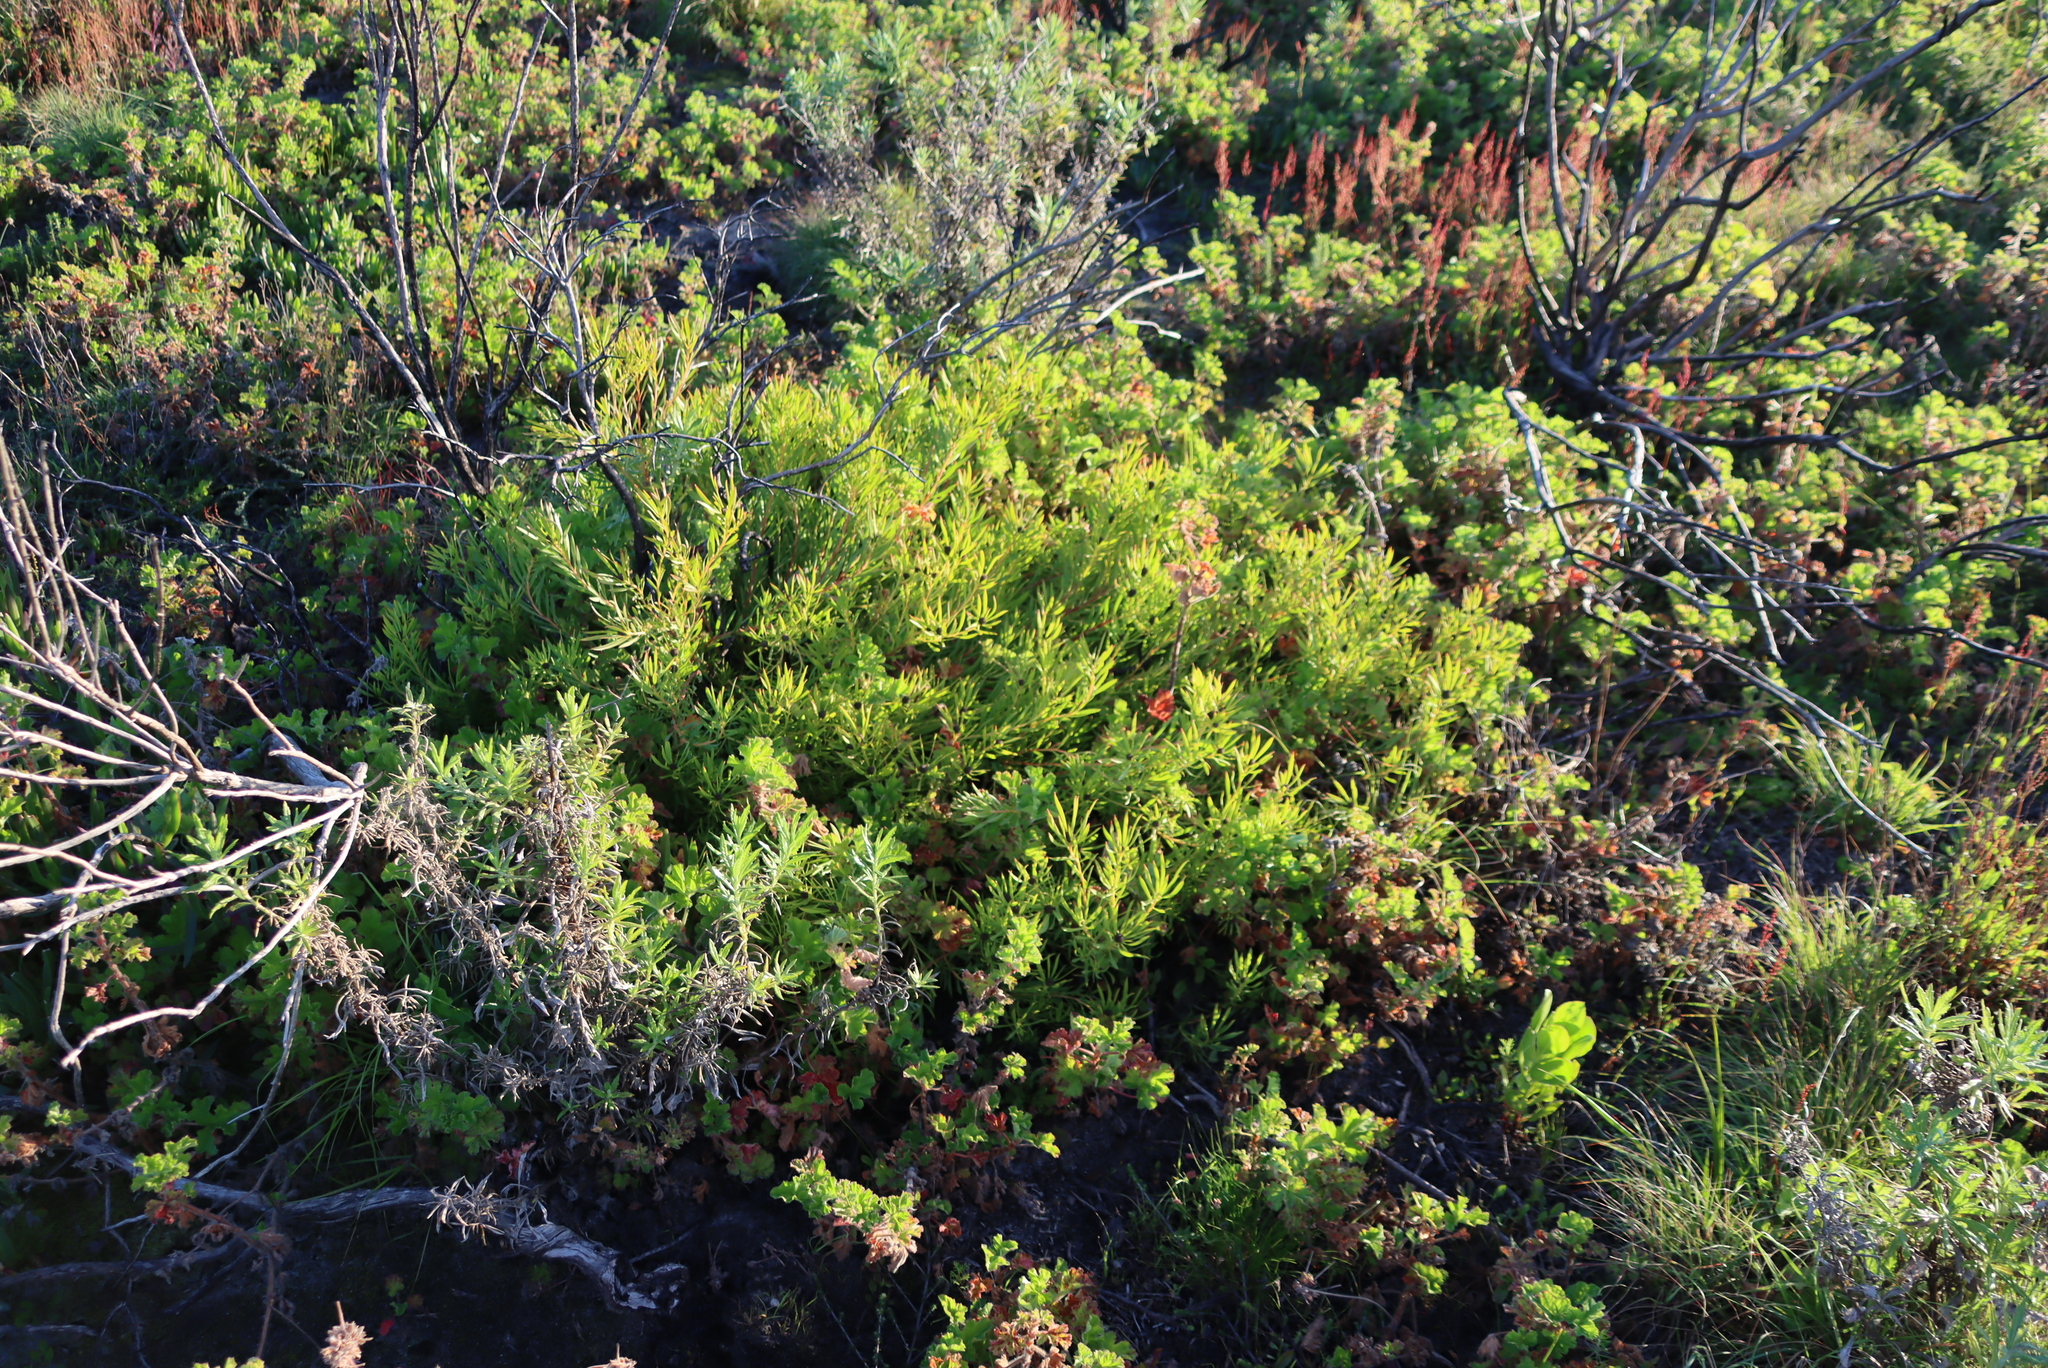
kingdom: Plantae
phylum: Tracheophyta
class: Magnoliopsida
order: Proteales
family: Proteaceae
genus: Leucadendron
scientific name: Leucadendron salignum
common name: Common sunshine conebush
